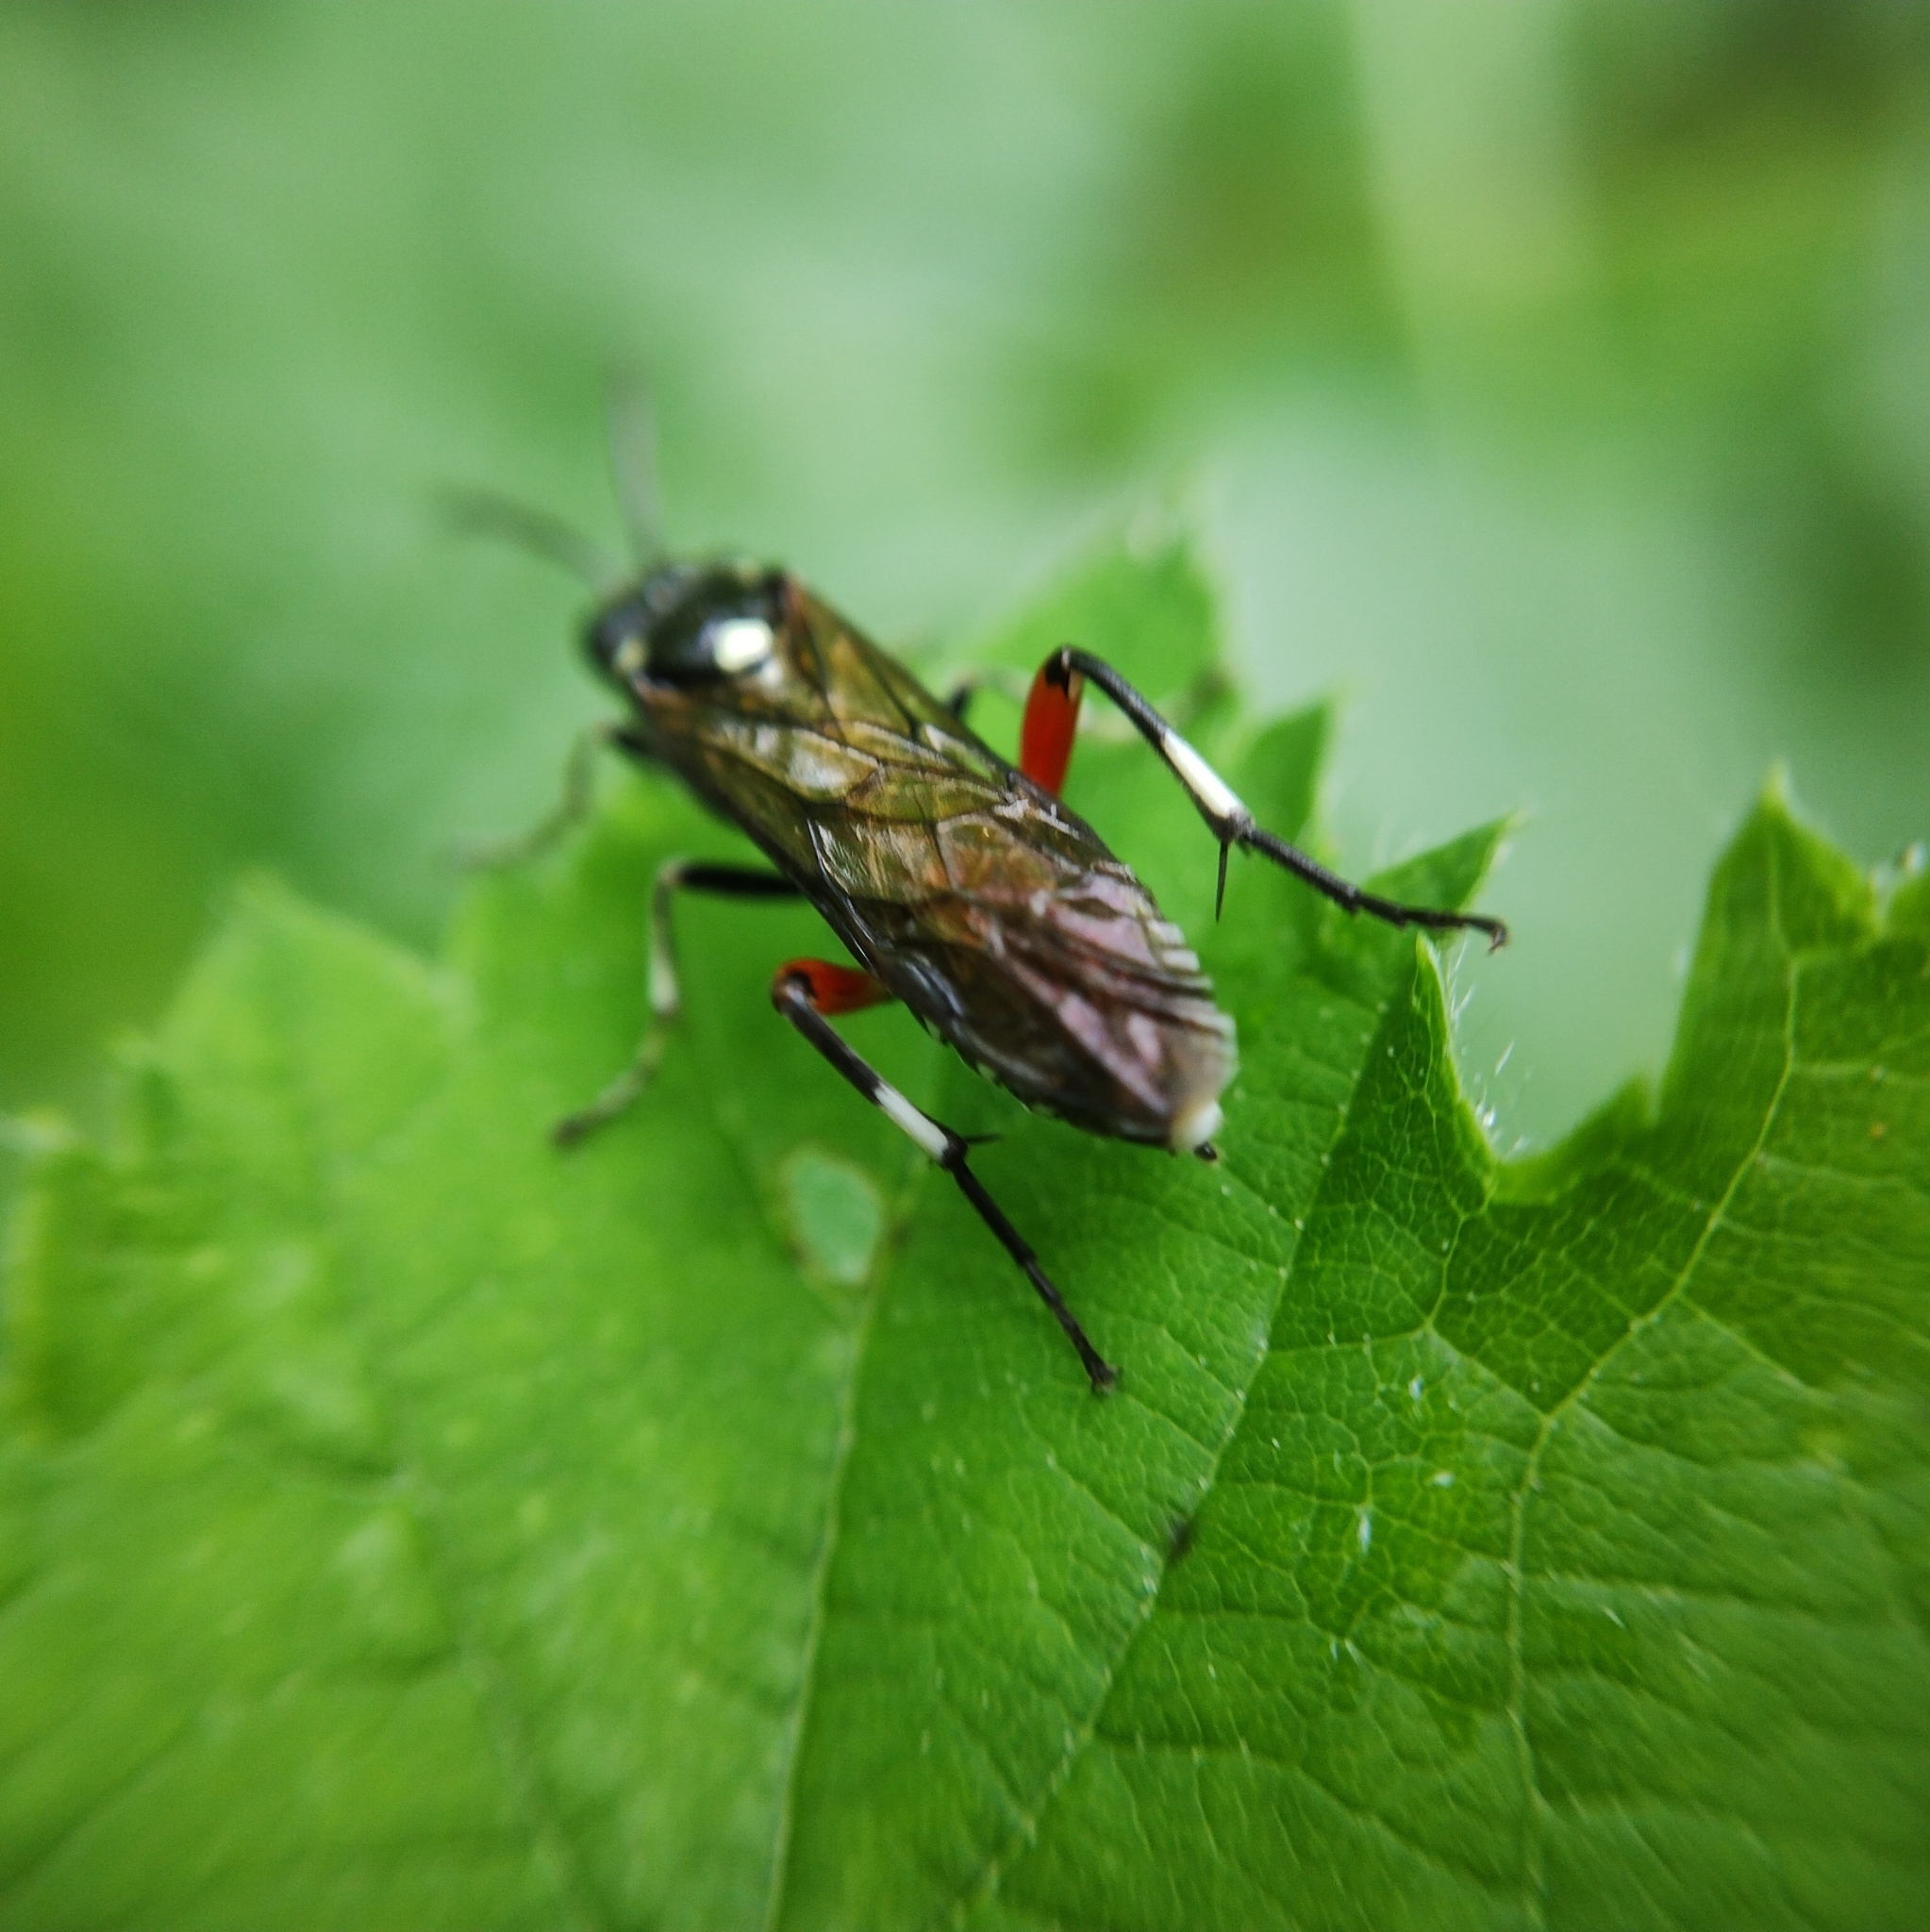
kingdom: Animalia
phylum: Arthropoda
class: Insecta
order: Hymenoptera
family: Tenthredinidae
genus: Macrophya
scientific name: Macrophya punctumalbum
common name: Sawfly
